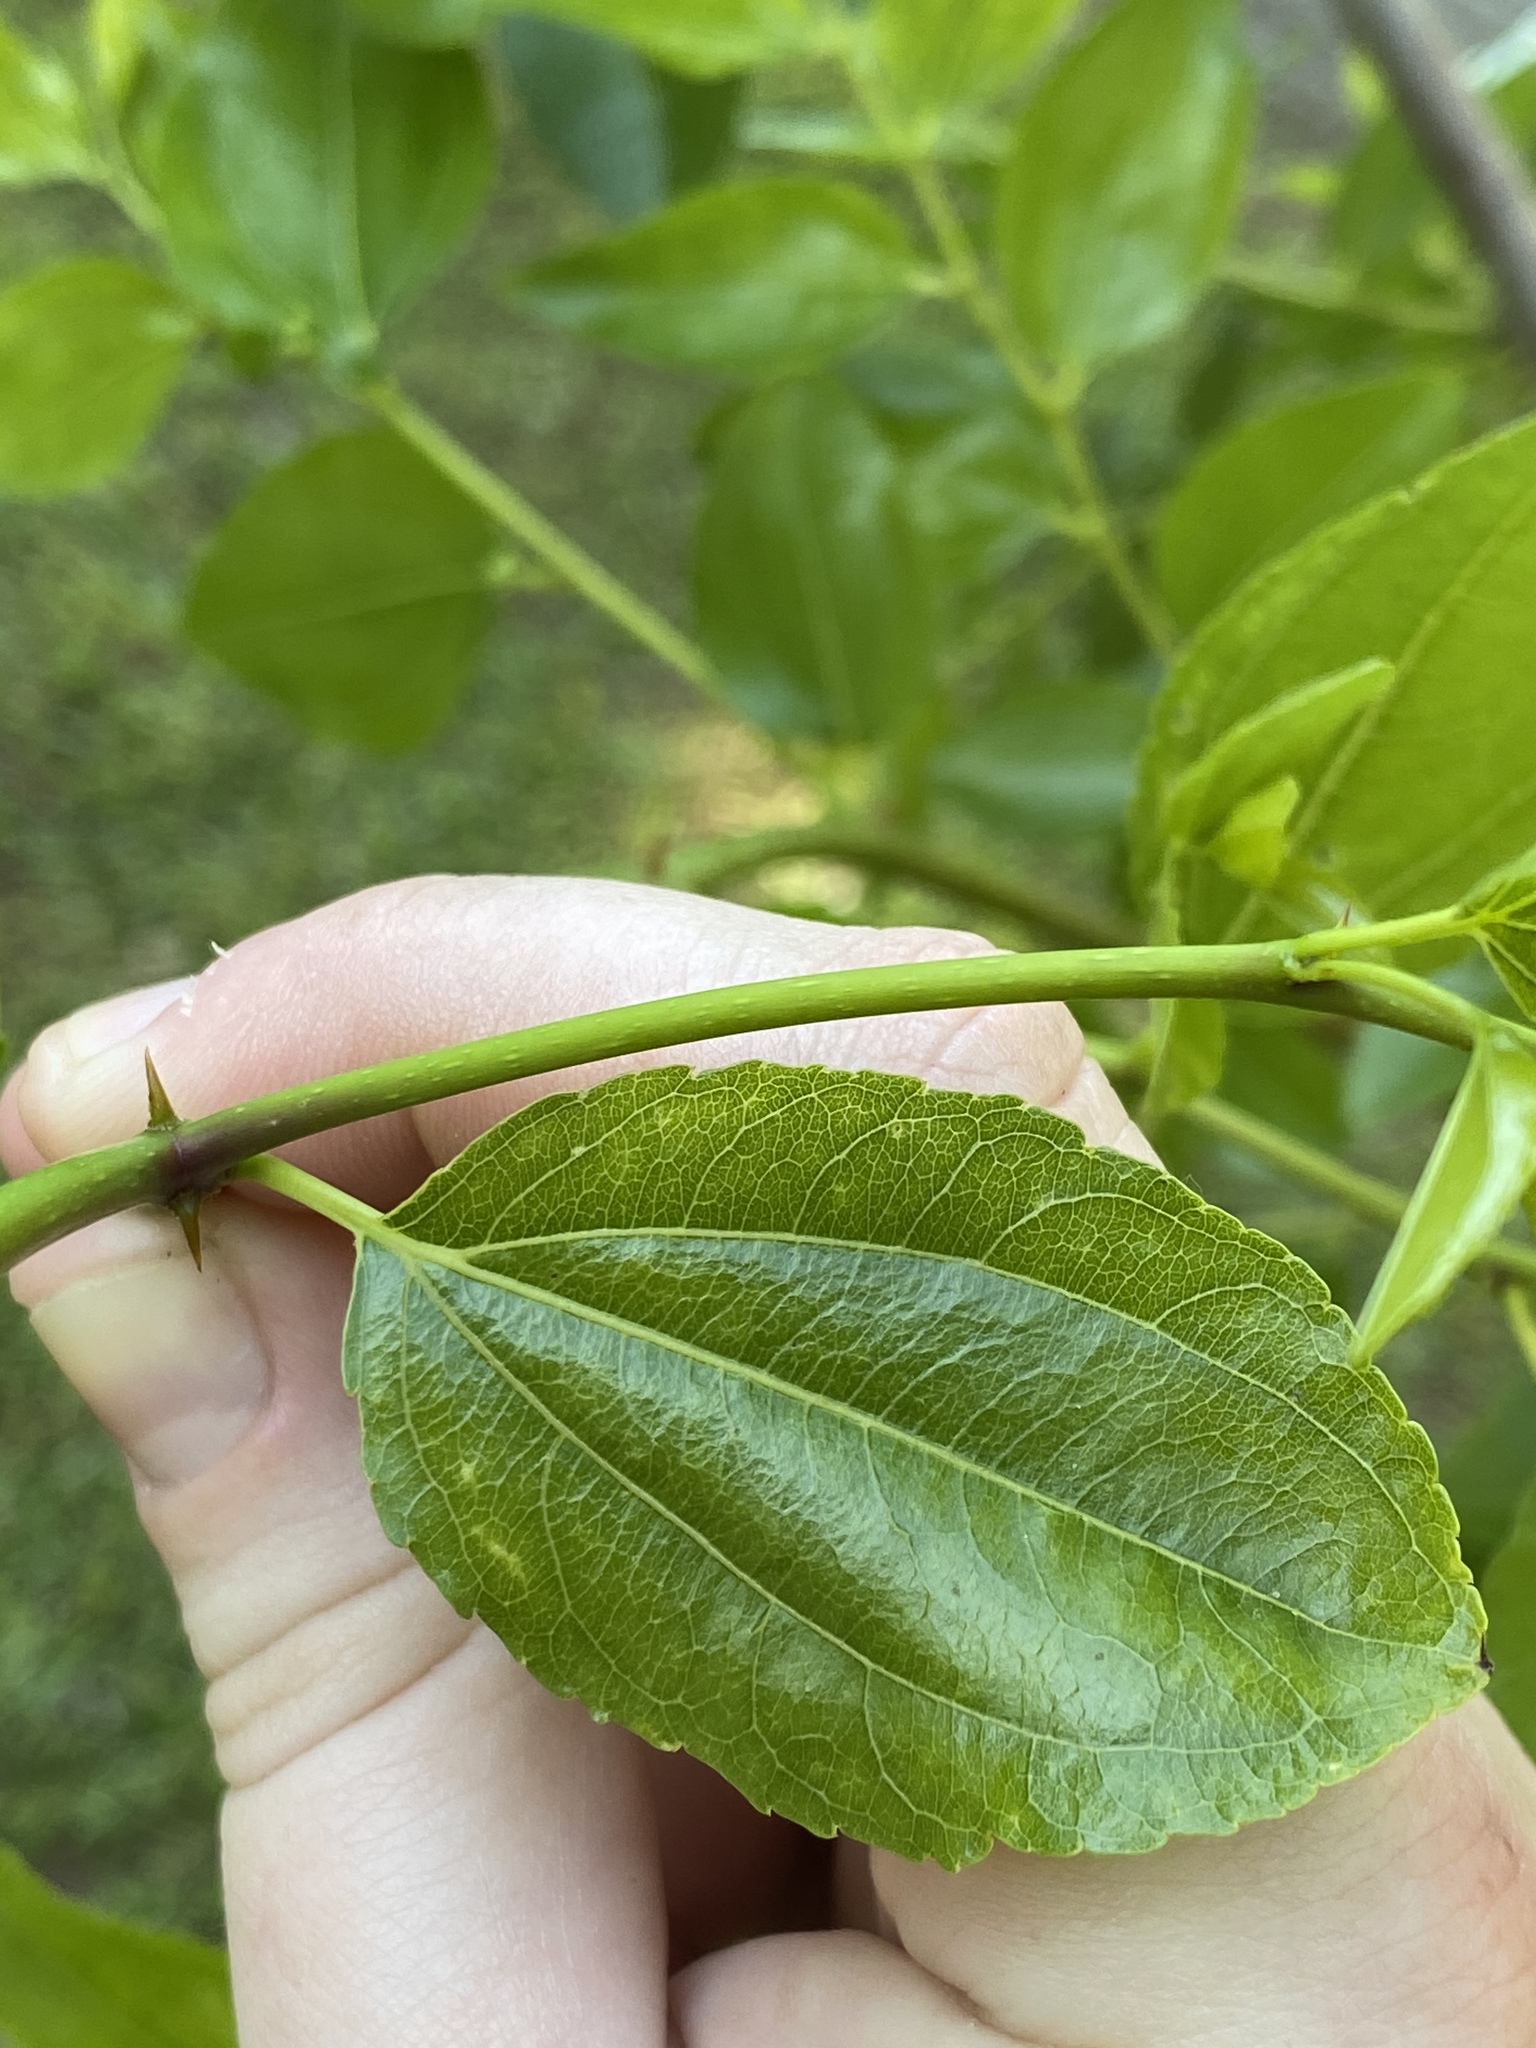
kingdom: Plantae
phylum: Tracheophyta
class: Magnoliopsida
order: Rosales
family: Rhamnaceae
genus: Ziziphus
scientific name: Ziziphus jujuba
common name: Jujube red date
